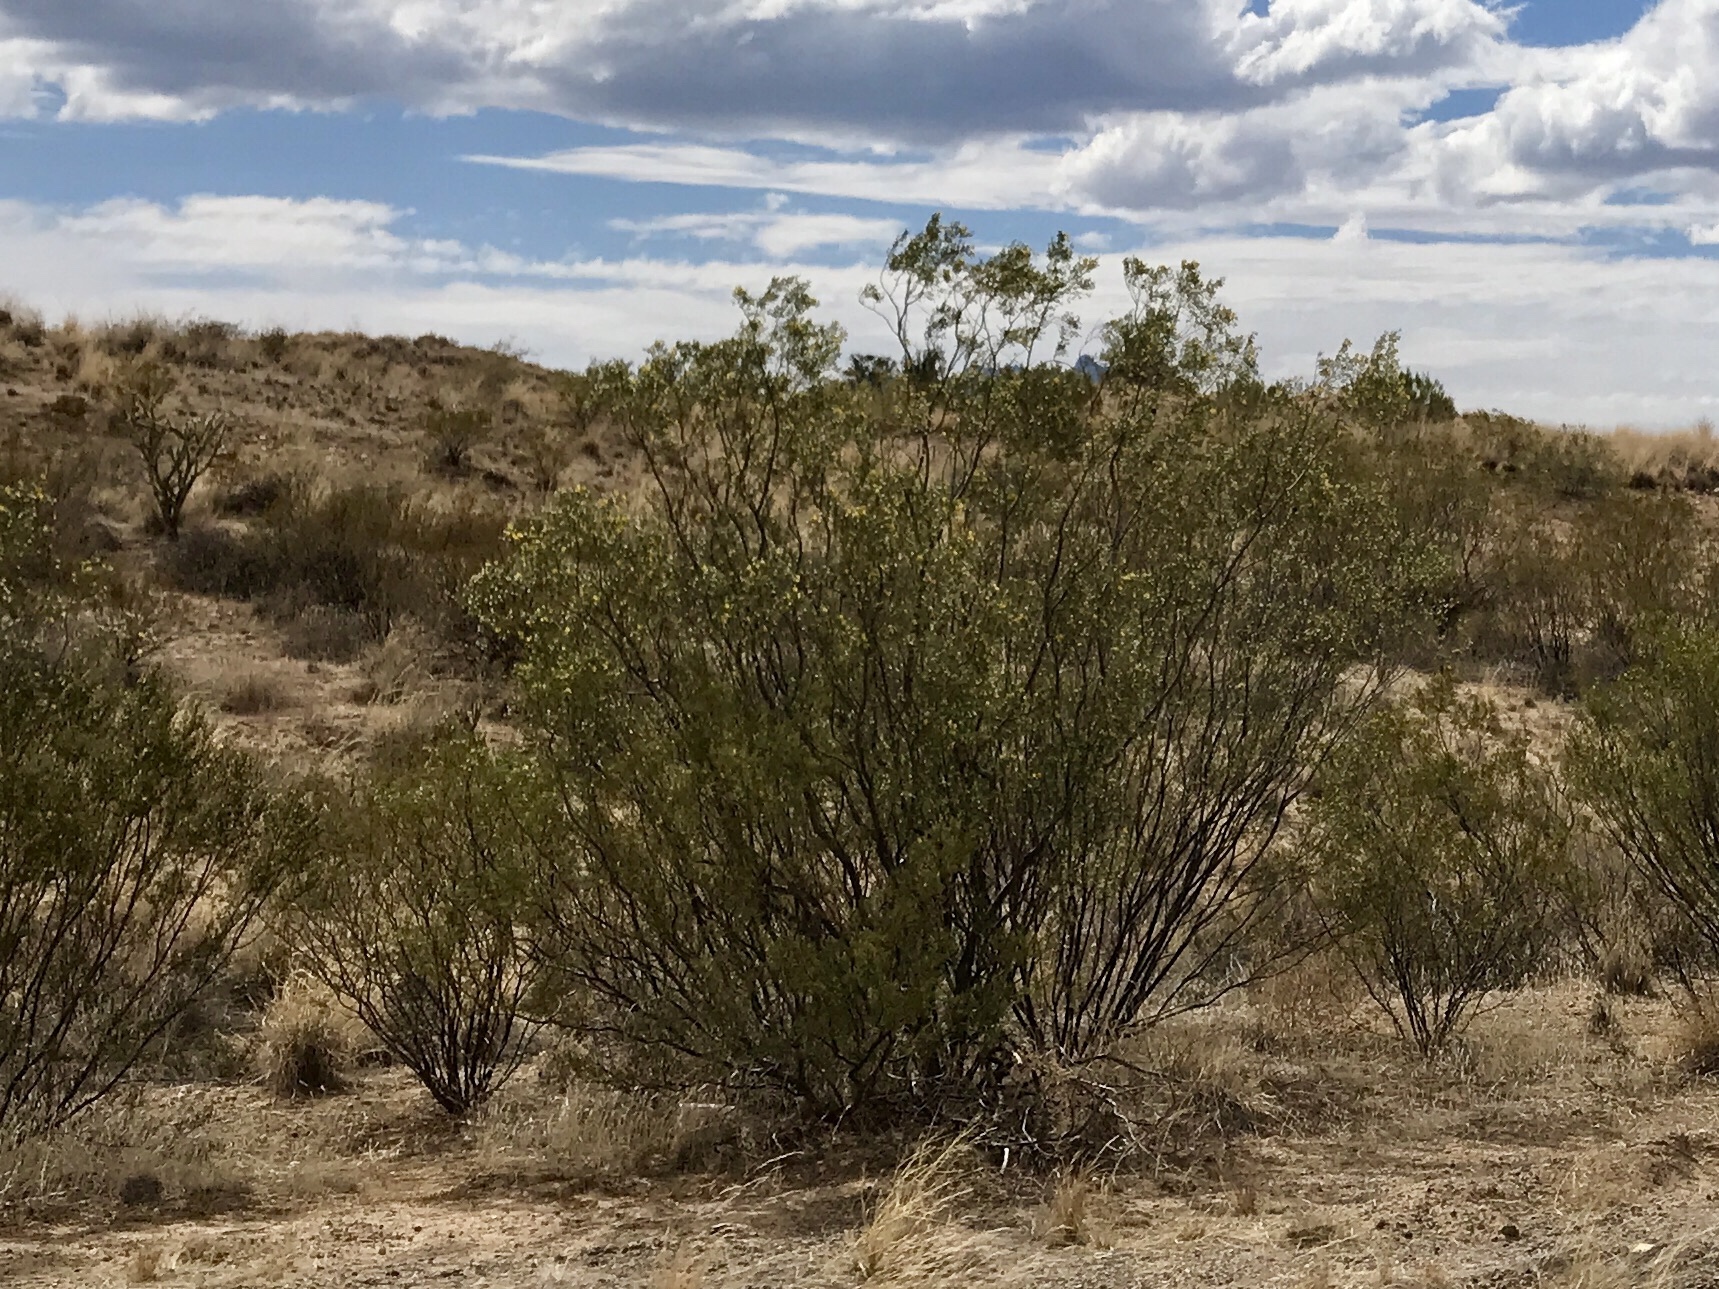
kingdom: Plantae
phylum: Tracheophyta
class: Magnoliopsida
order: Zygophyllales
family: Zygophyllaceae
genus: Larrea
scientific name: Larrea tridentata
